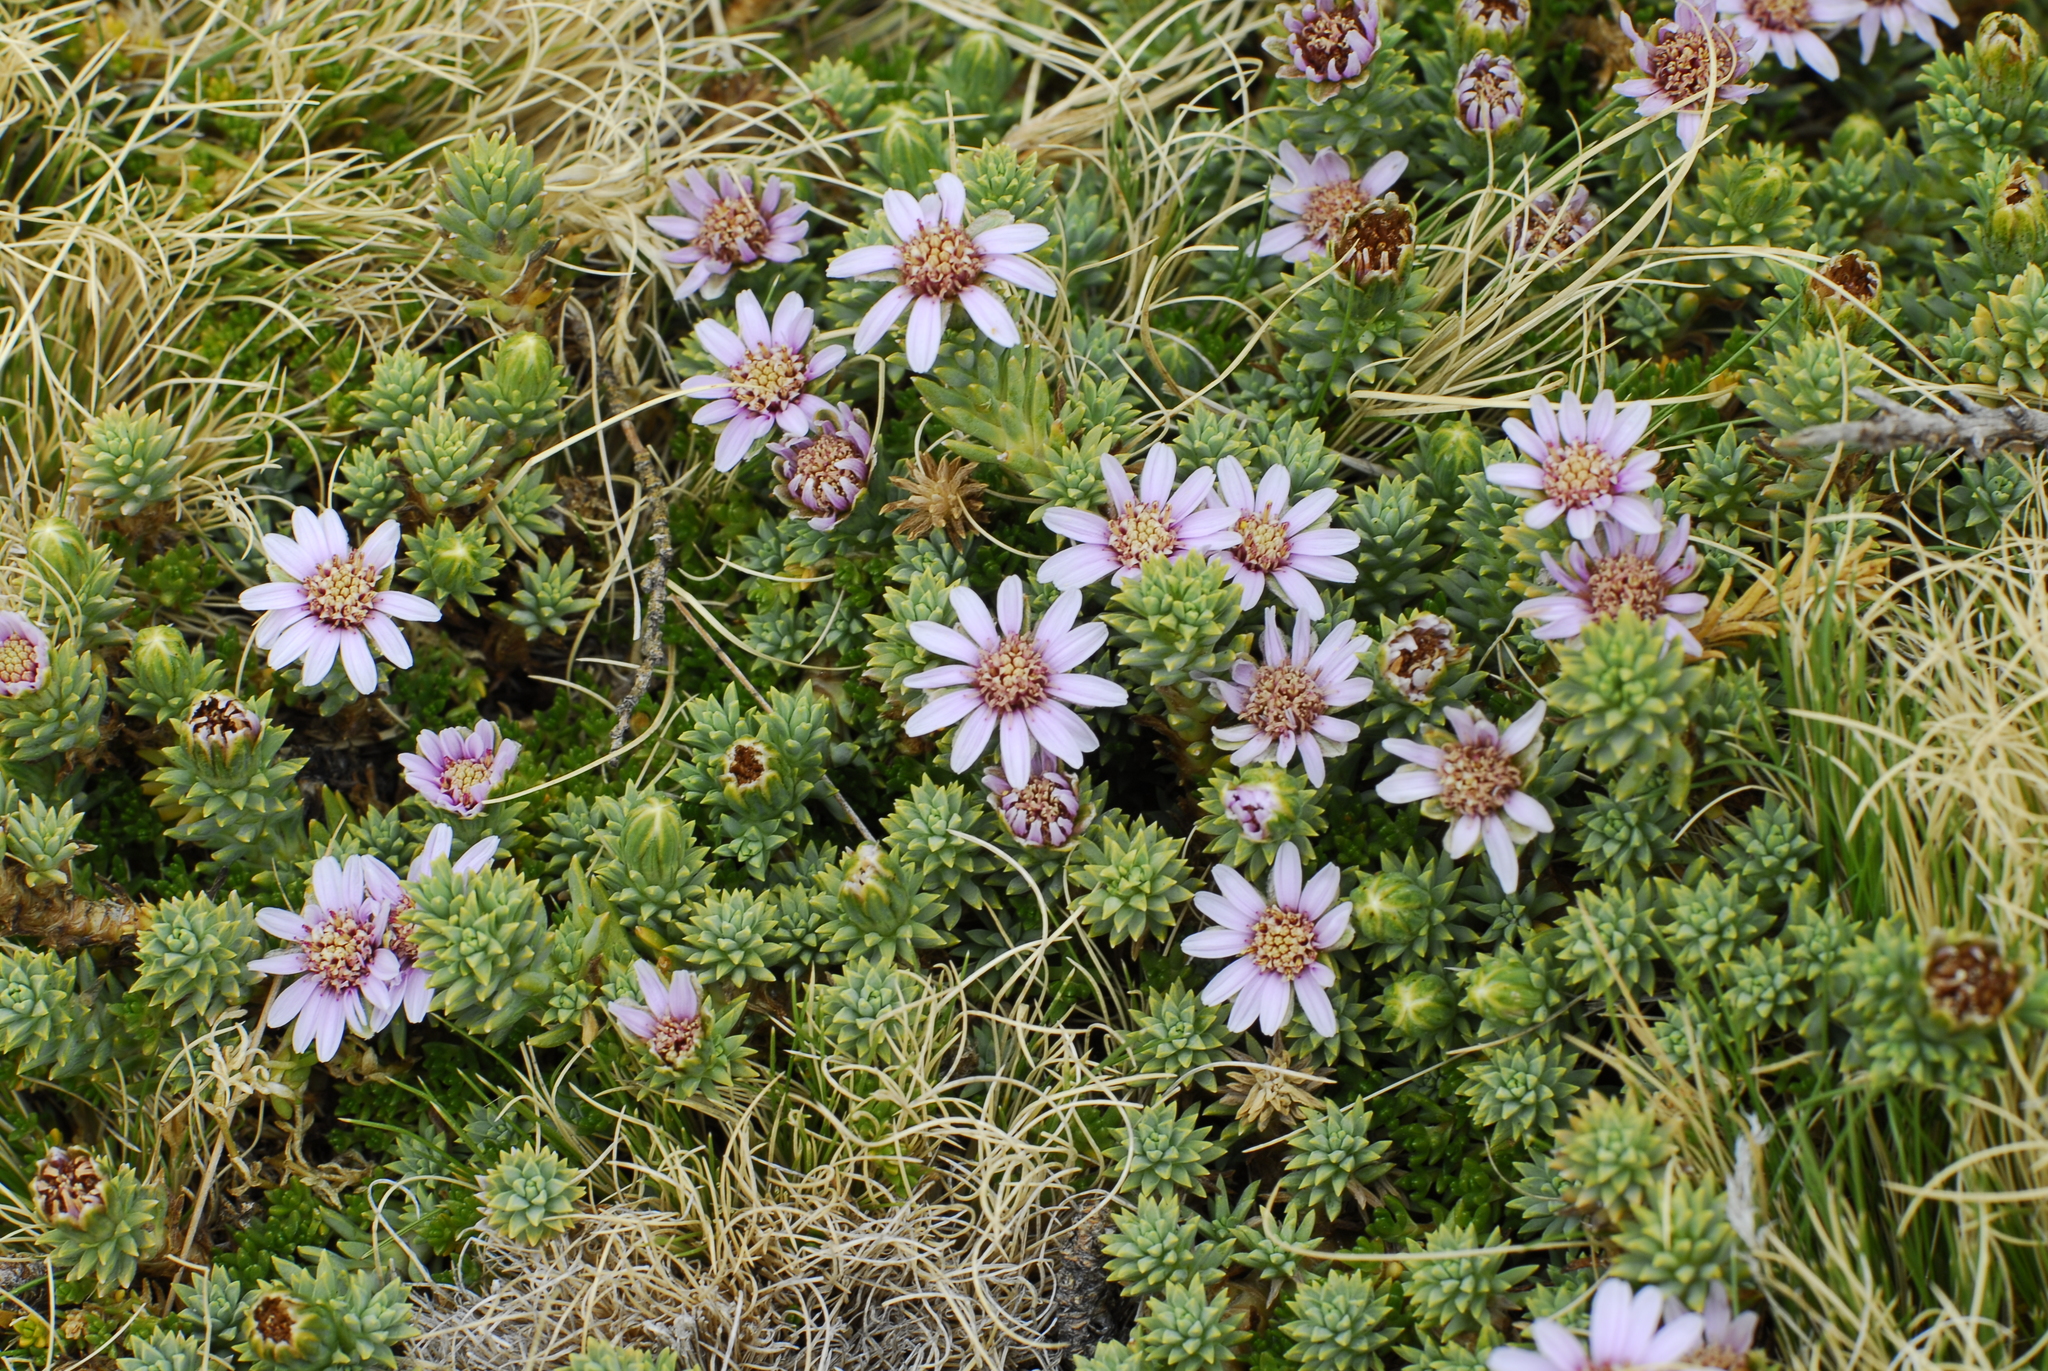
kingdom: Plantae
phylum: Tracheophyta
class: Magnoliopsida
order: Asterales
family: Asteraceae
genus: Werneria
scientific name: Werneria weddellii
